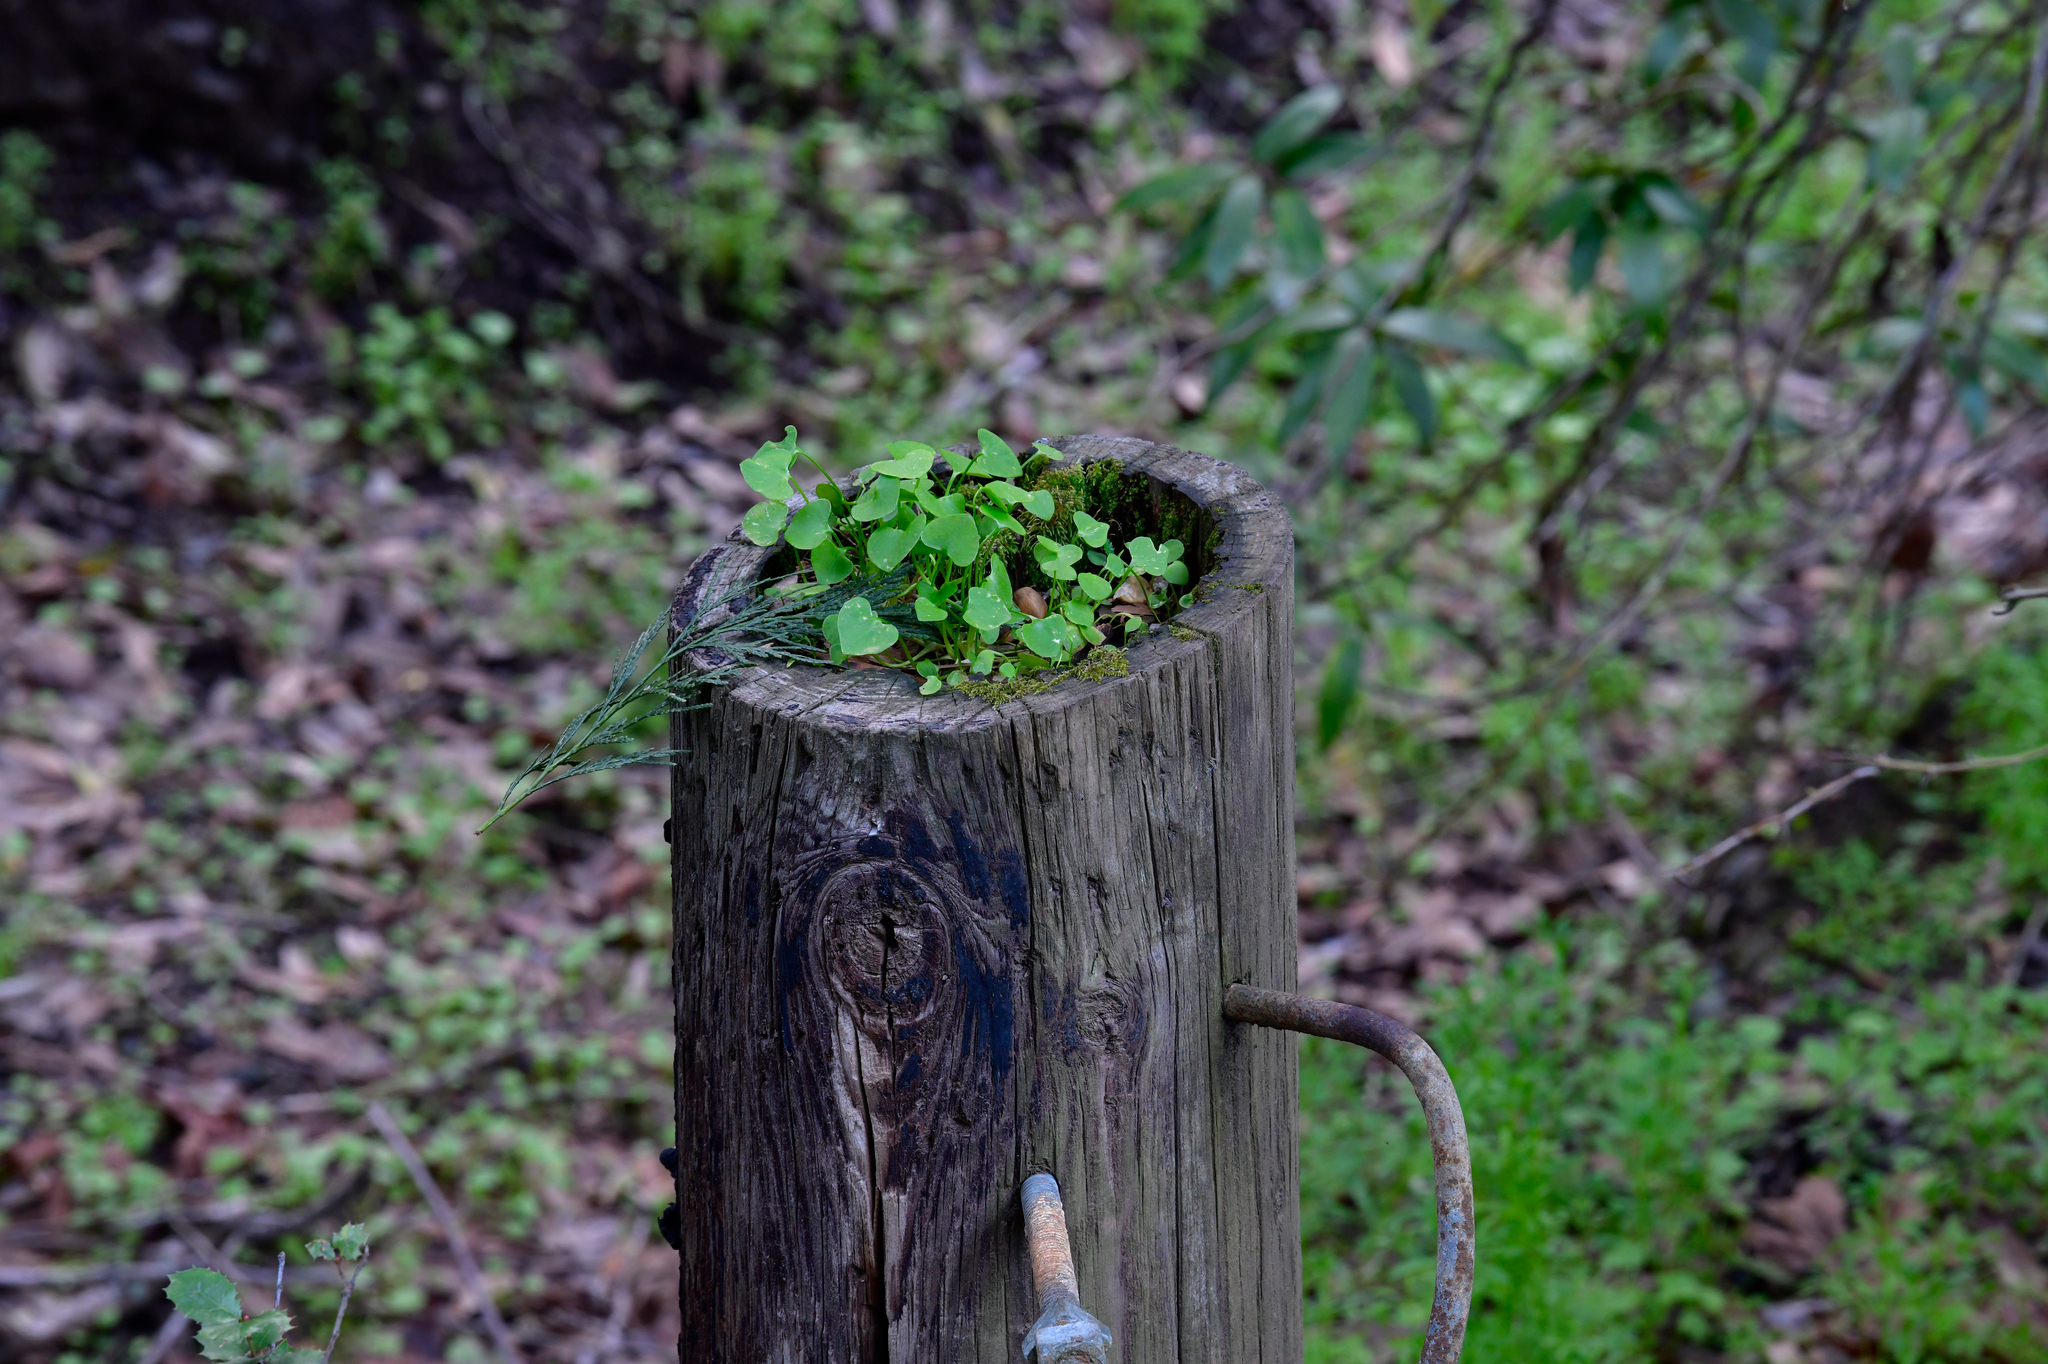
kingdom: Plantae
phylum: Tracheophyta
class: Magnoliopsida
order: Caryophyllales
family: Montiaceae
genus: Claytonia
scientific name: Claytonia perfoliata
